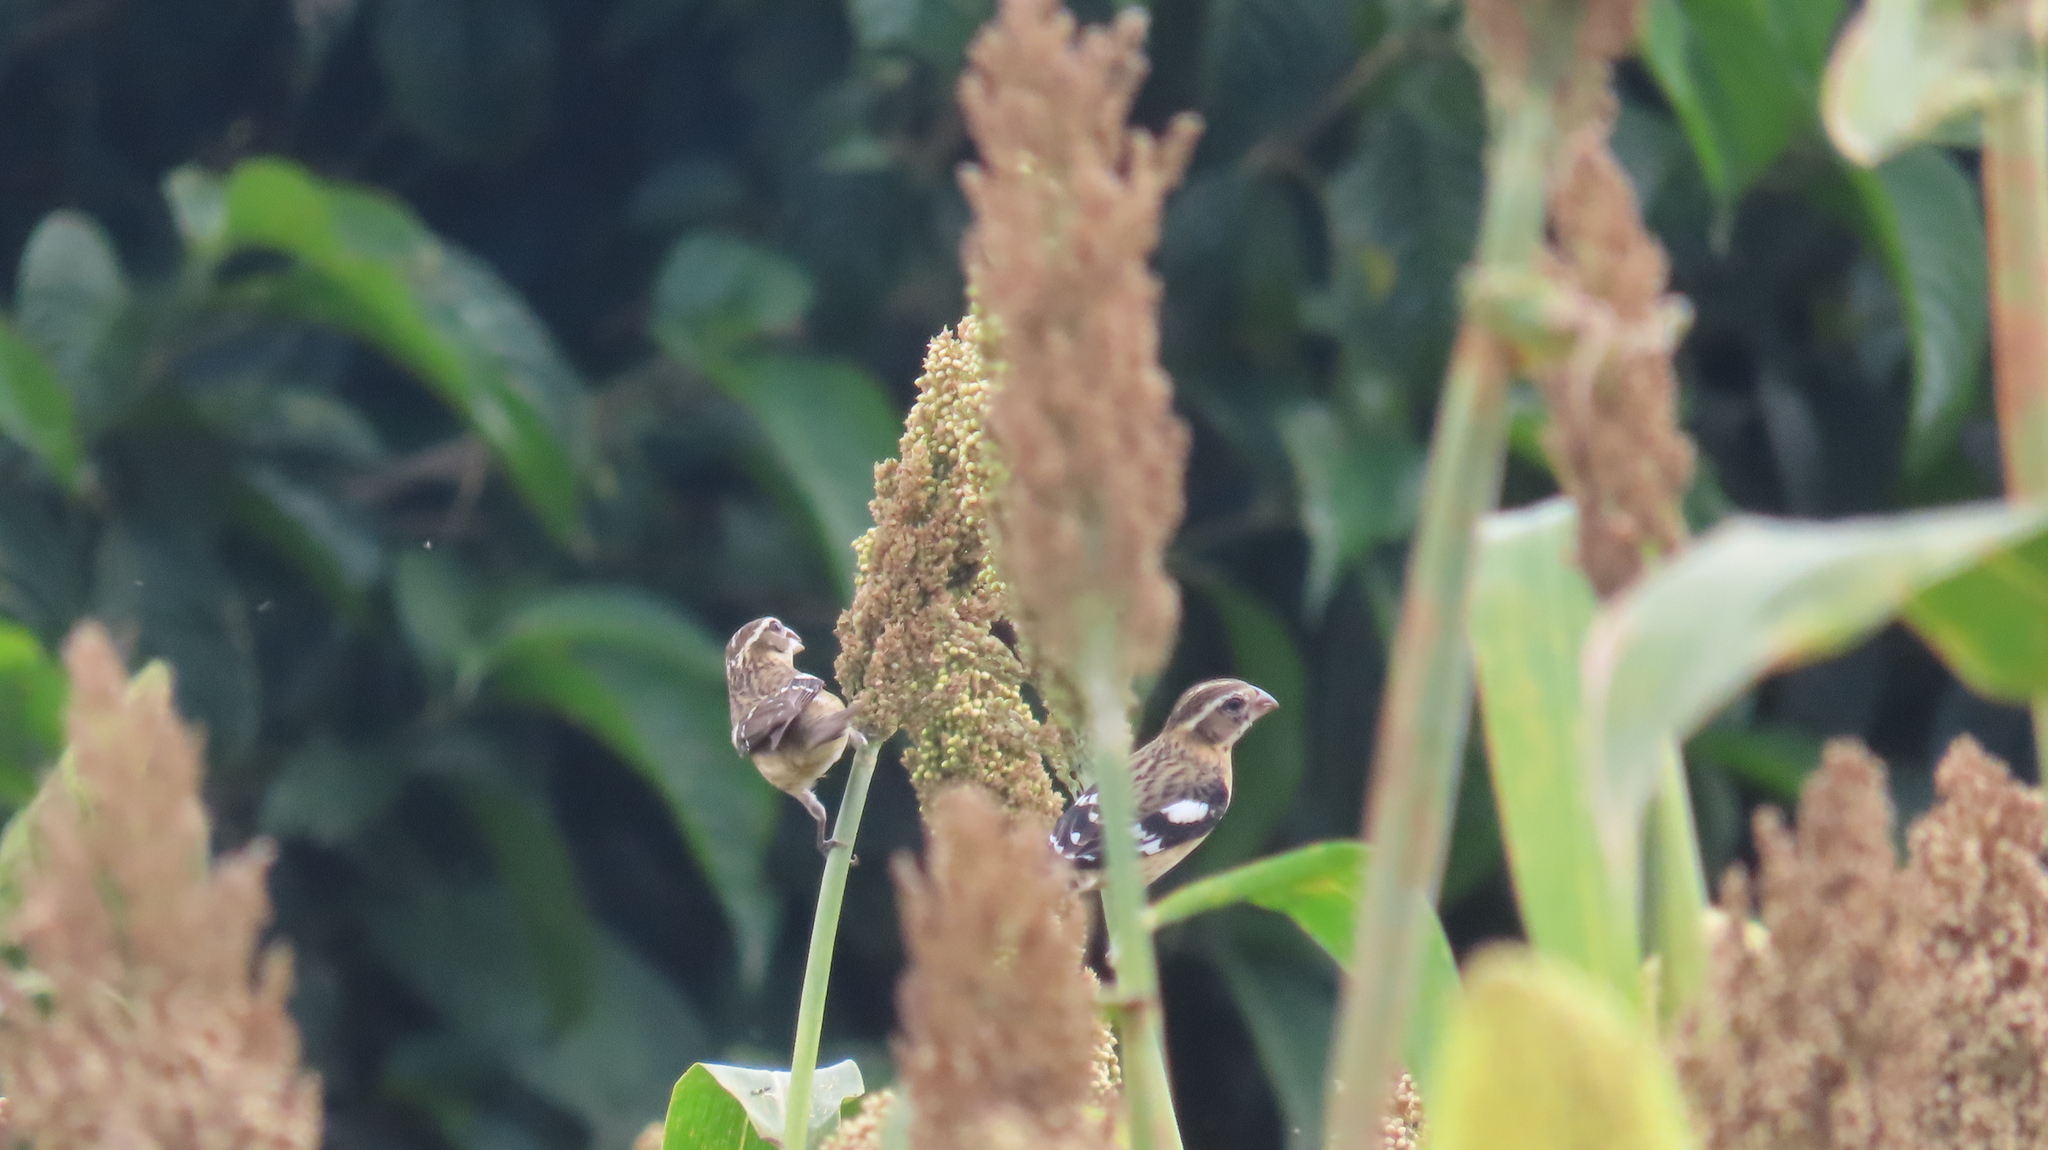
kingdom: Animalia
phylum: Chordata
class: Aves
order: Passeriformes
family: Cardinalidae
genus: Pheucticus
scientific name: Pheucticus ludovicianus
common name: Rose-breasted grosbeak
